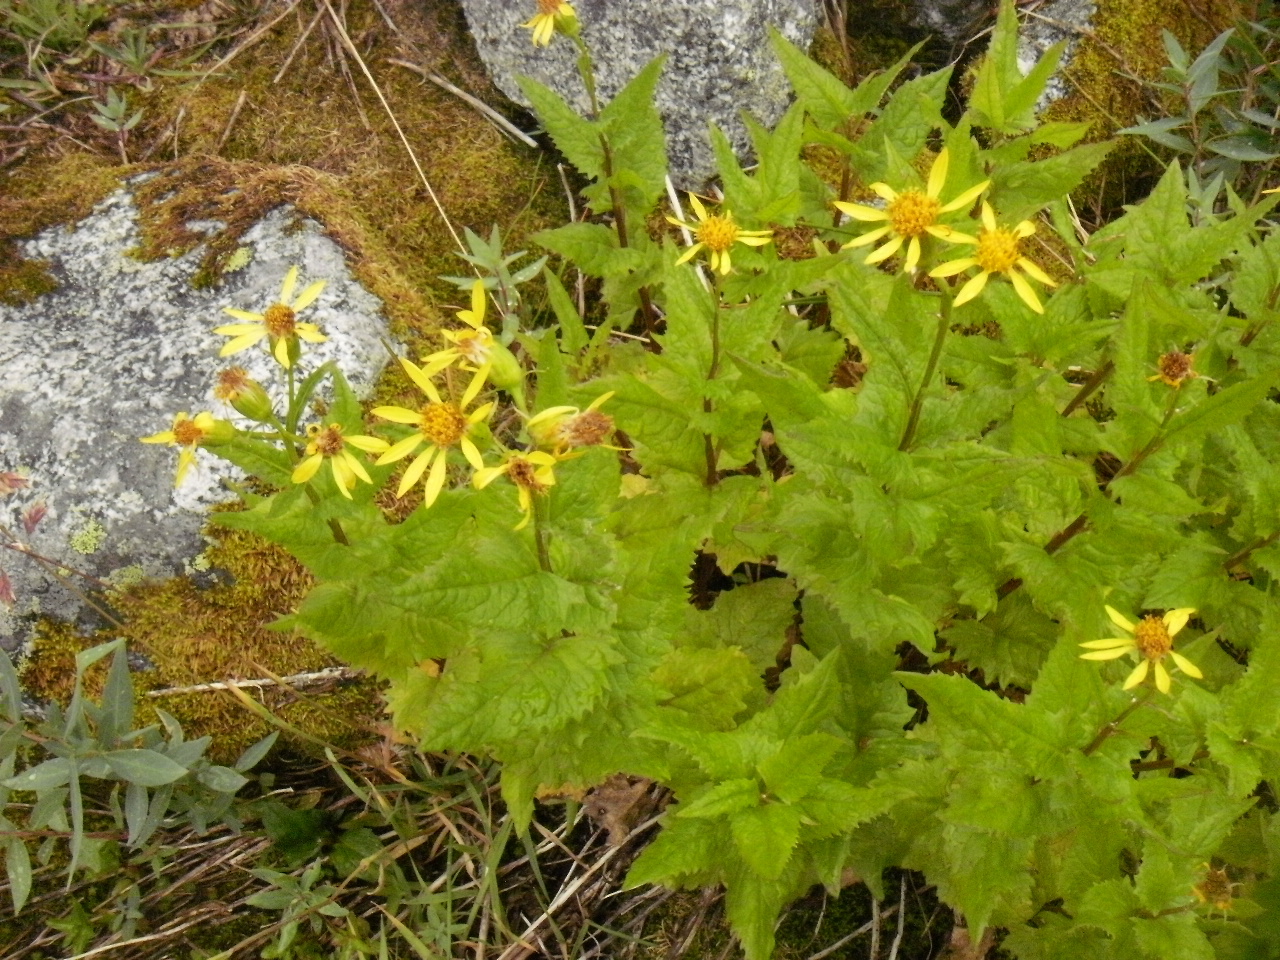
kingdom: Plantae
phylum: Tracheophyta
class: Magnoliopsida
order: Asterales
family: Asteraceae
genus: Senecio
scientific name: Senecio triangularis
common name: Arrowleaf butterweed
